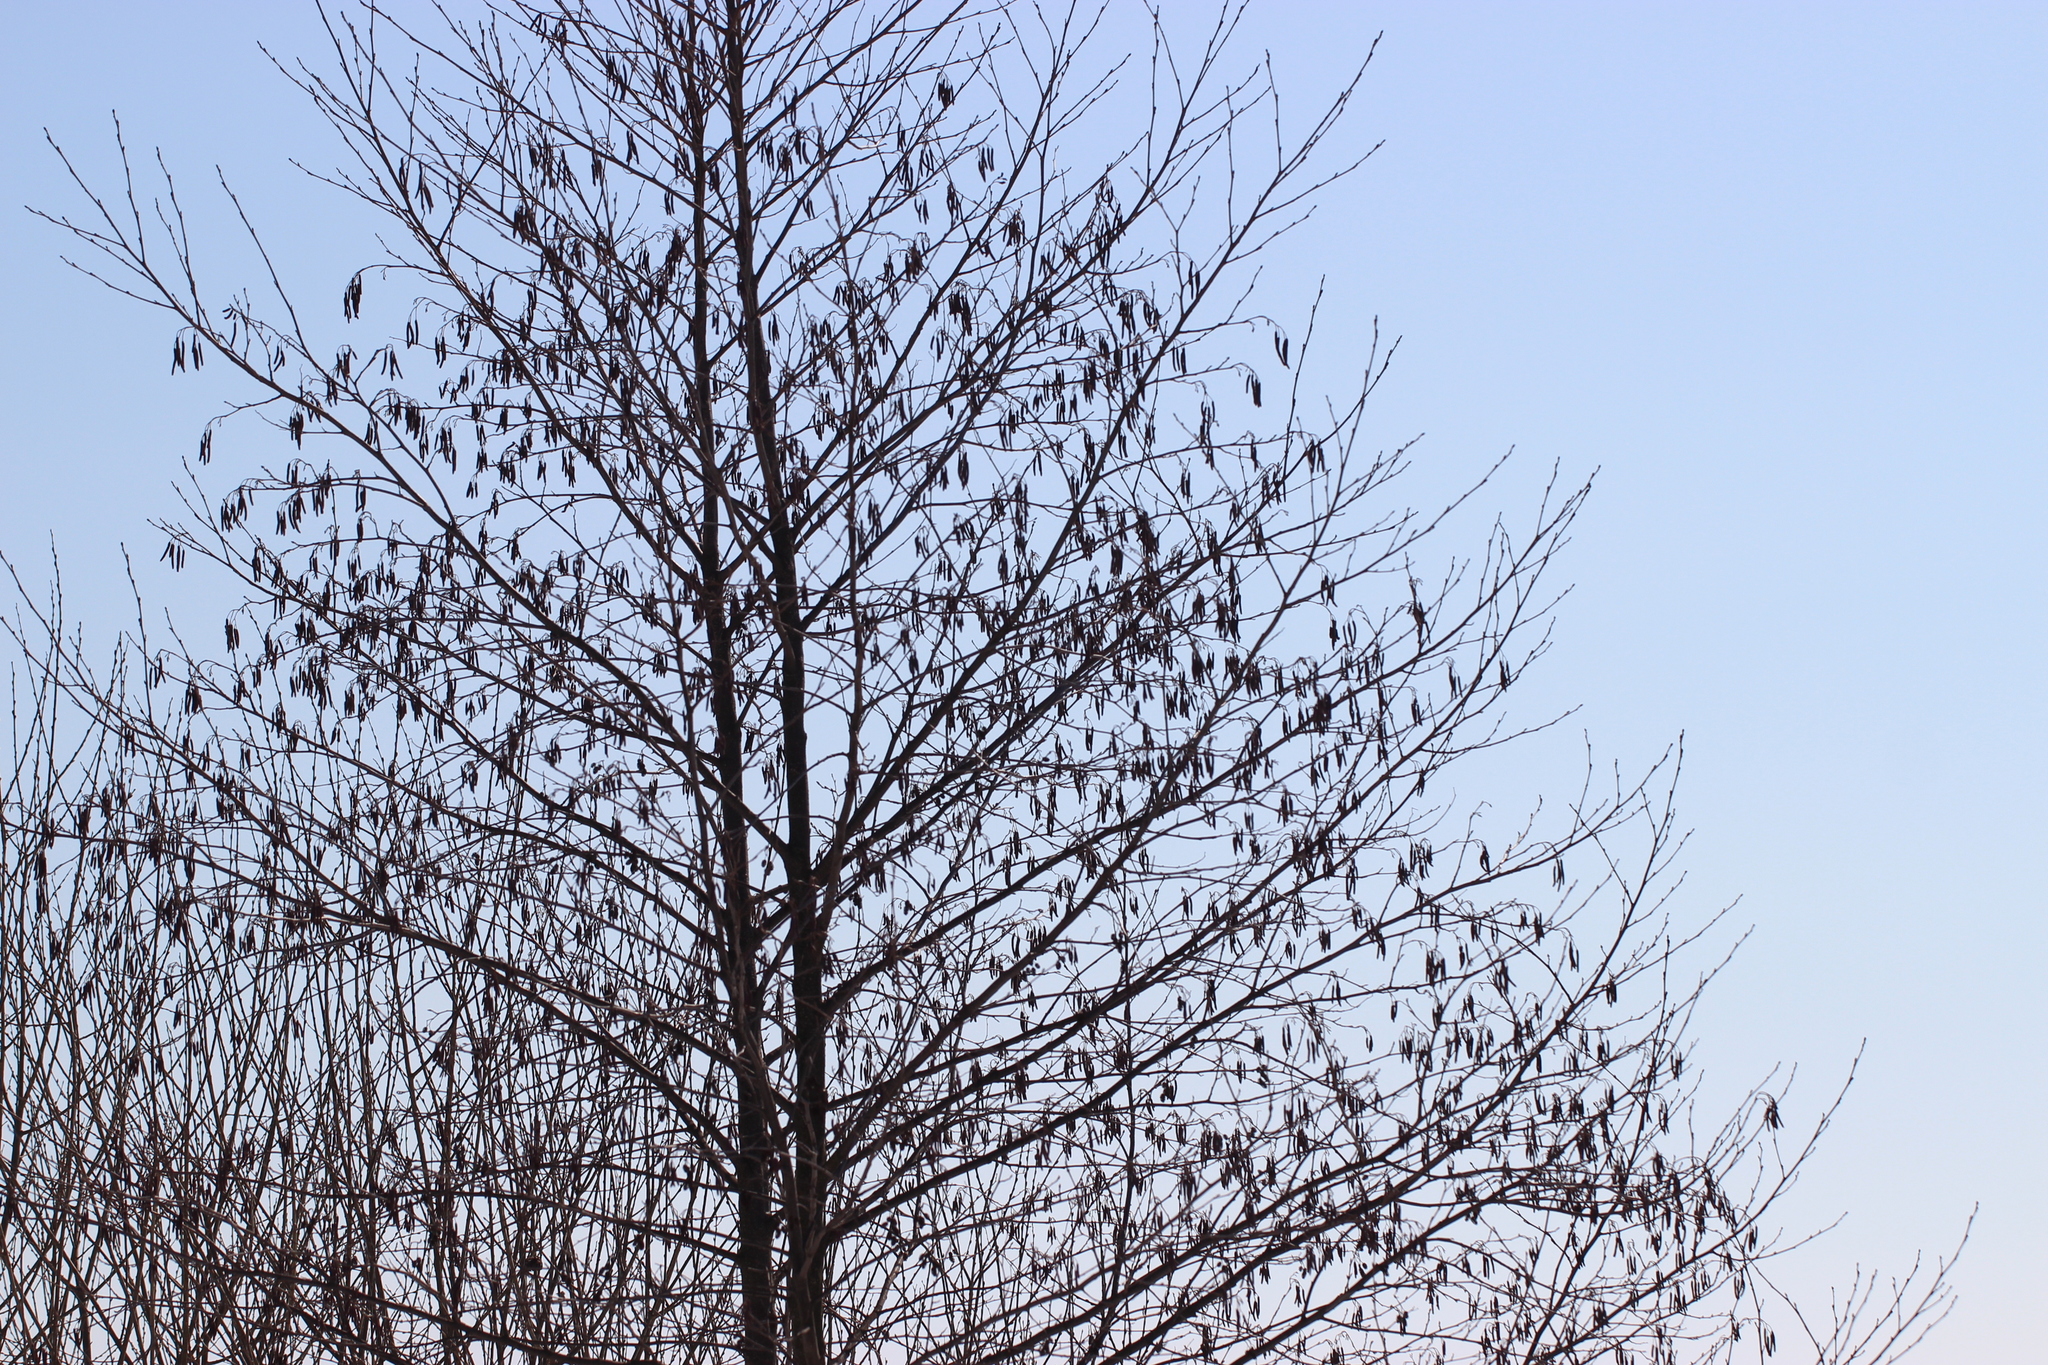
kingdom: Plantae
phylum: Tracheophyta
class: Magnoliopsida
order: Fagales
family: Betulaceae
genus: Alnus
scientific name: Alnus glutinosa
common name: Black alder
